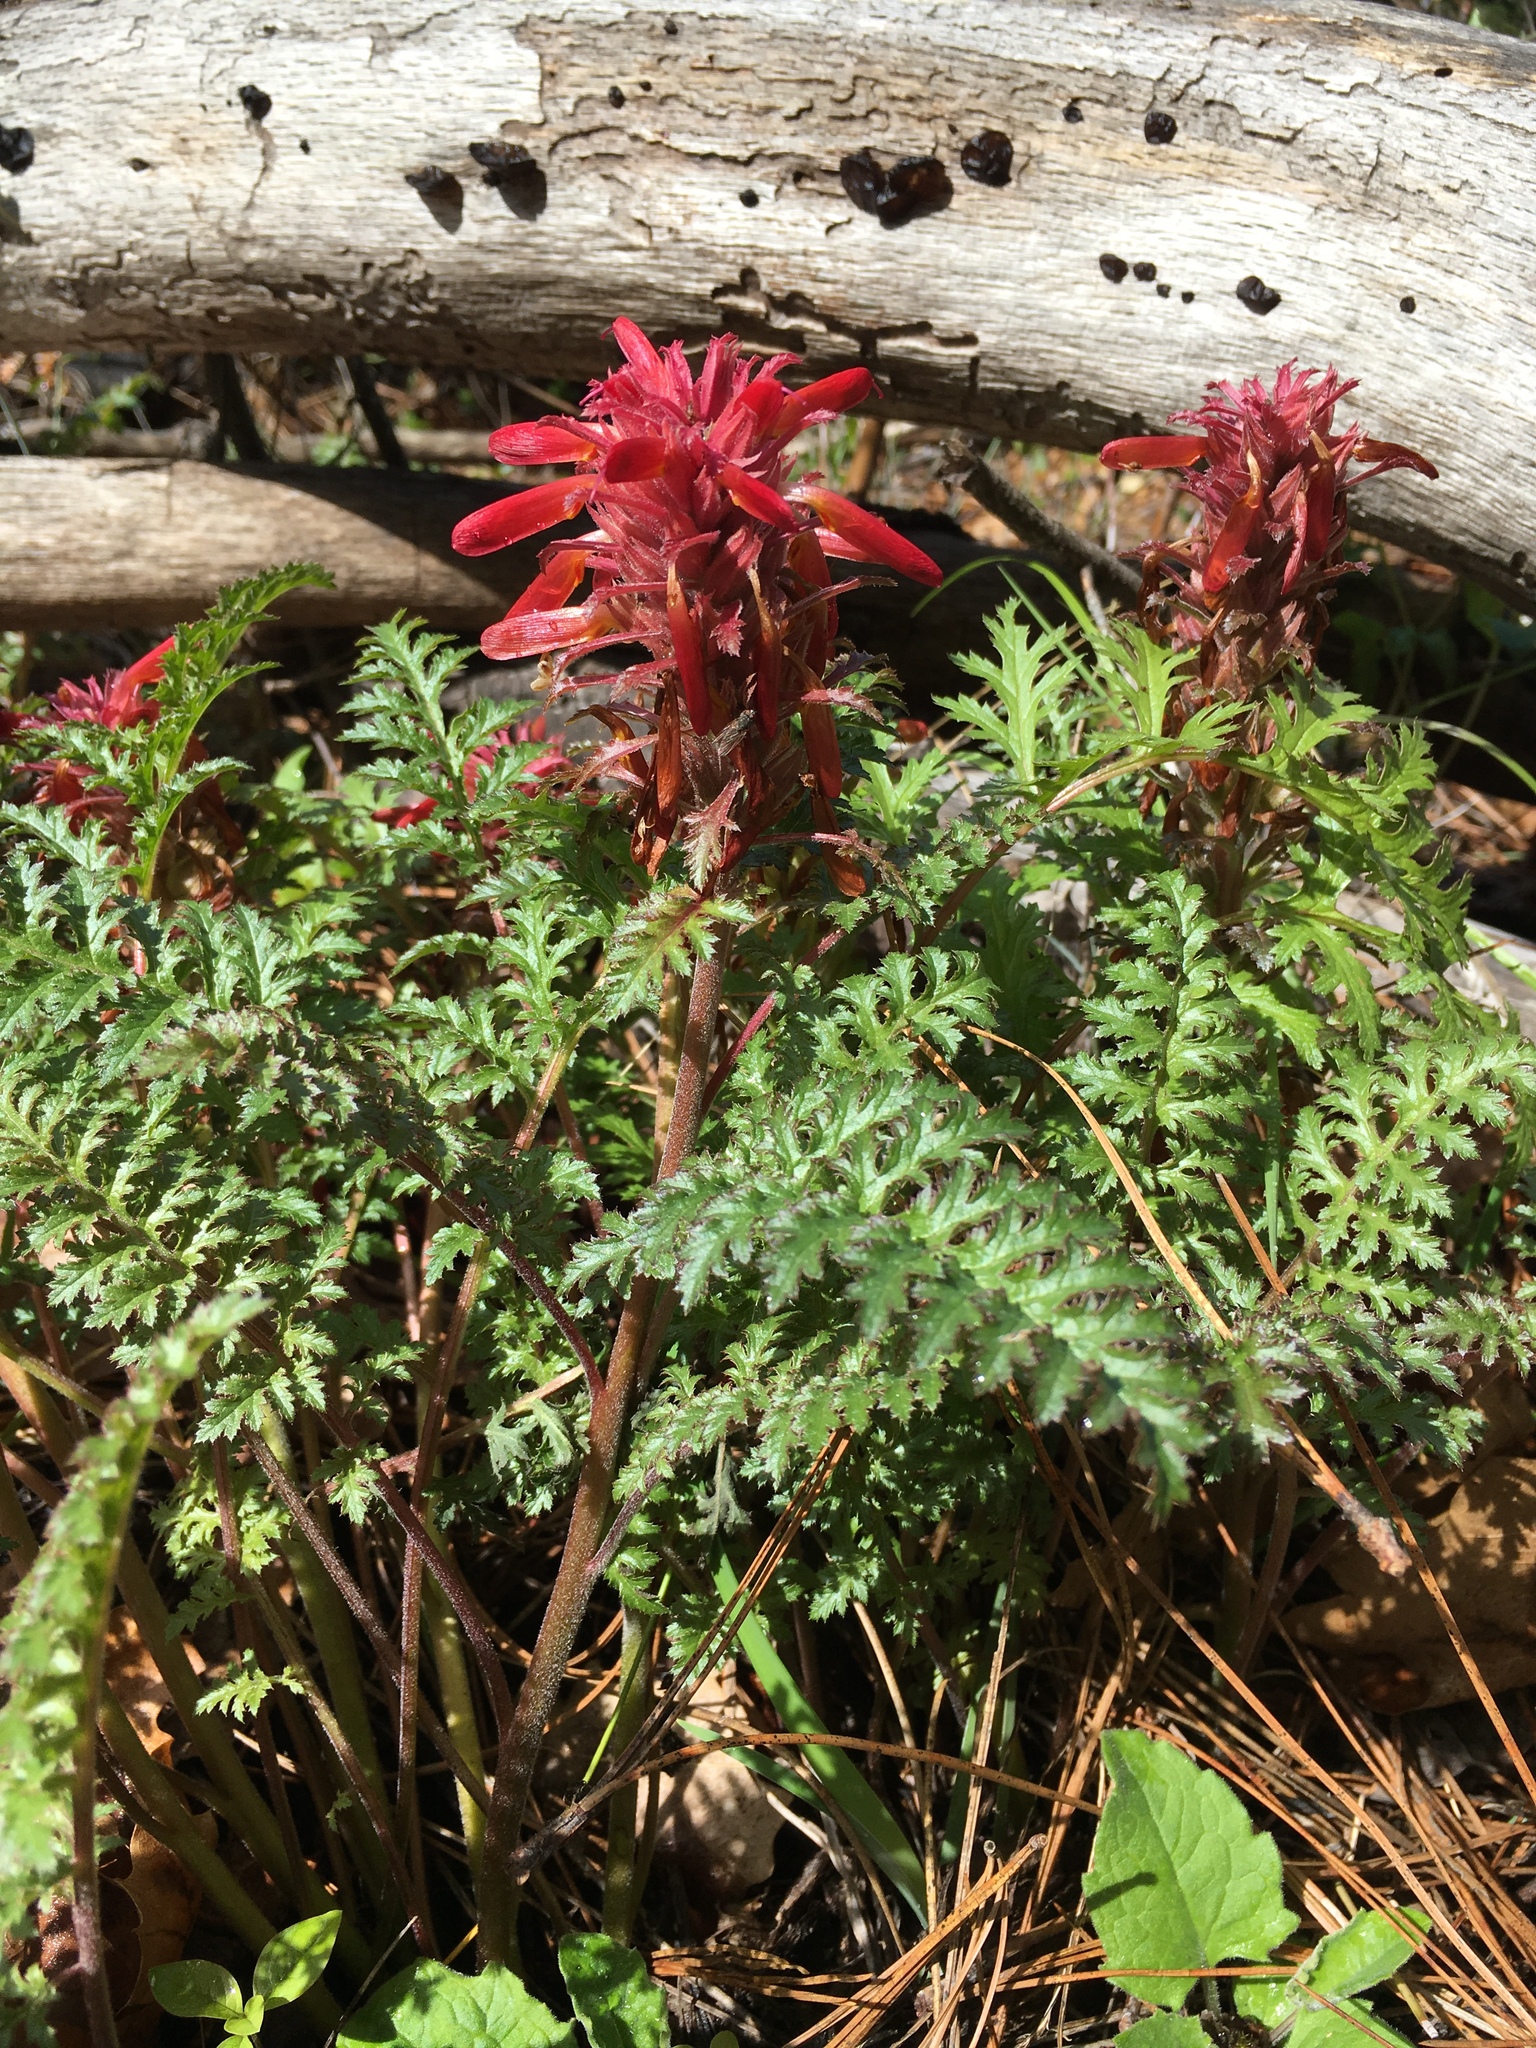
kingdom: Plantae
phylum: Tracheophyta
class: Magnoliopsida
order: Lamiales
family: Orobanchaceae
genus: Pedicularis
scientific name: Pedicularis densiflora
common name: Indian warrior
